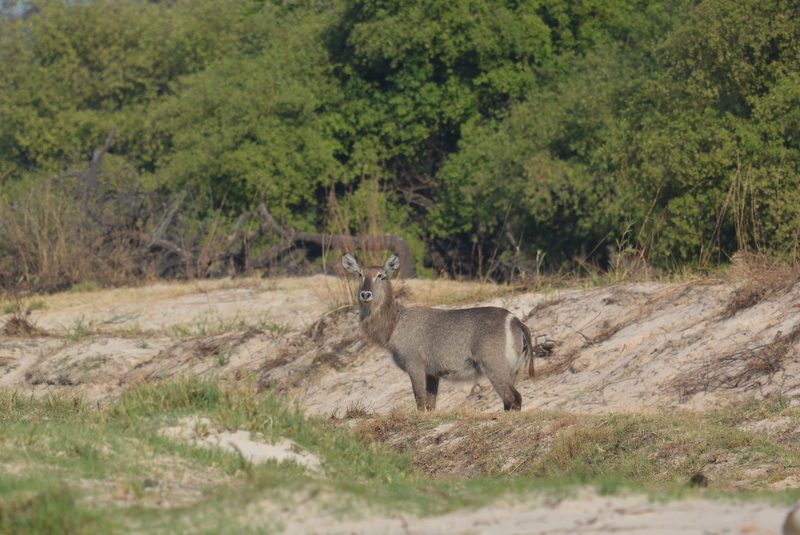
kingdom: Animalia
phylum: Chordata
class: Mammalia
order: Artiodactyla
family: Bovidae
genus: Kobus
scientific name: Kobus ellipsiprymnus
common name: Waterbuck
